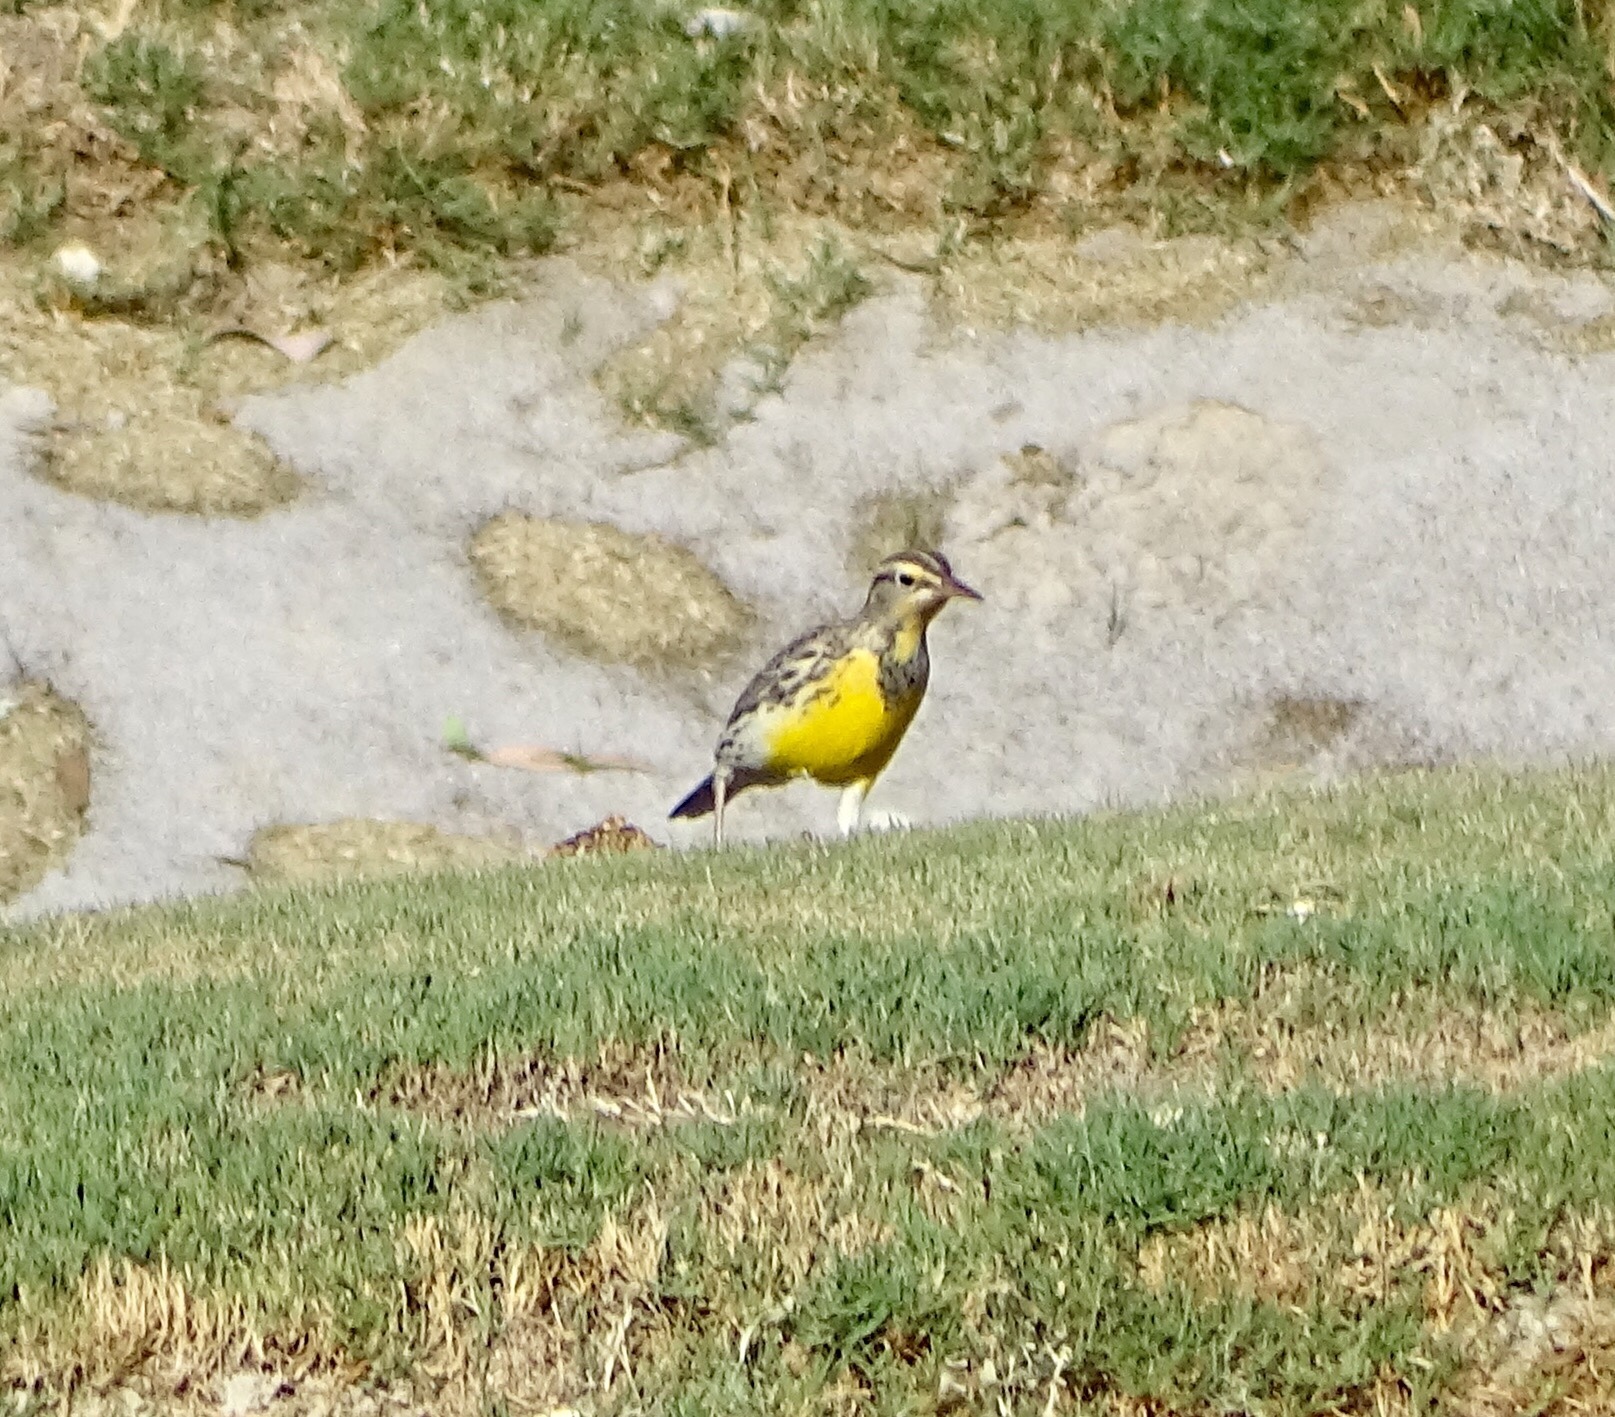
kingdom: Animalia
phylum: Chordata
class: Aves
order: Passeriformes
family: Icteridae
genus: Sturnella
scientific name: Sturnella neglecta
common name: Western meadowlark
